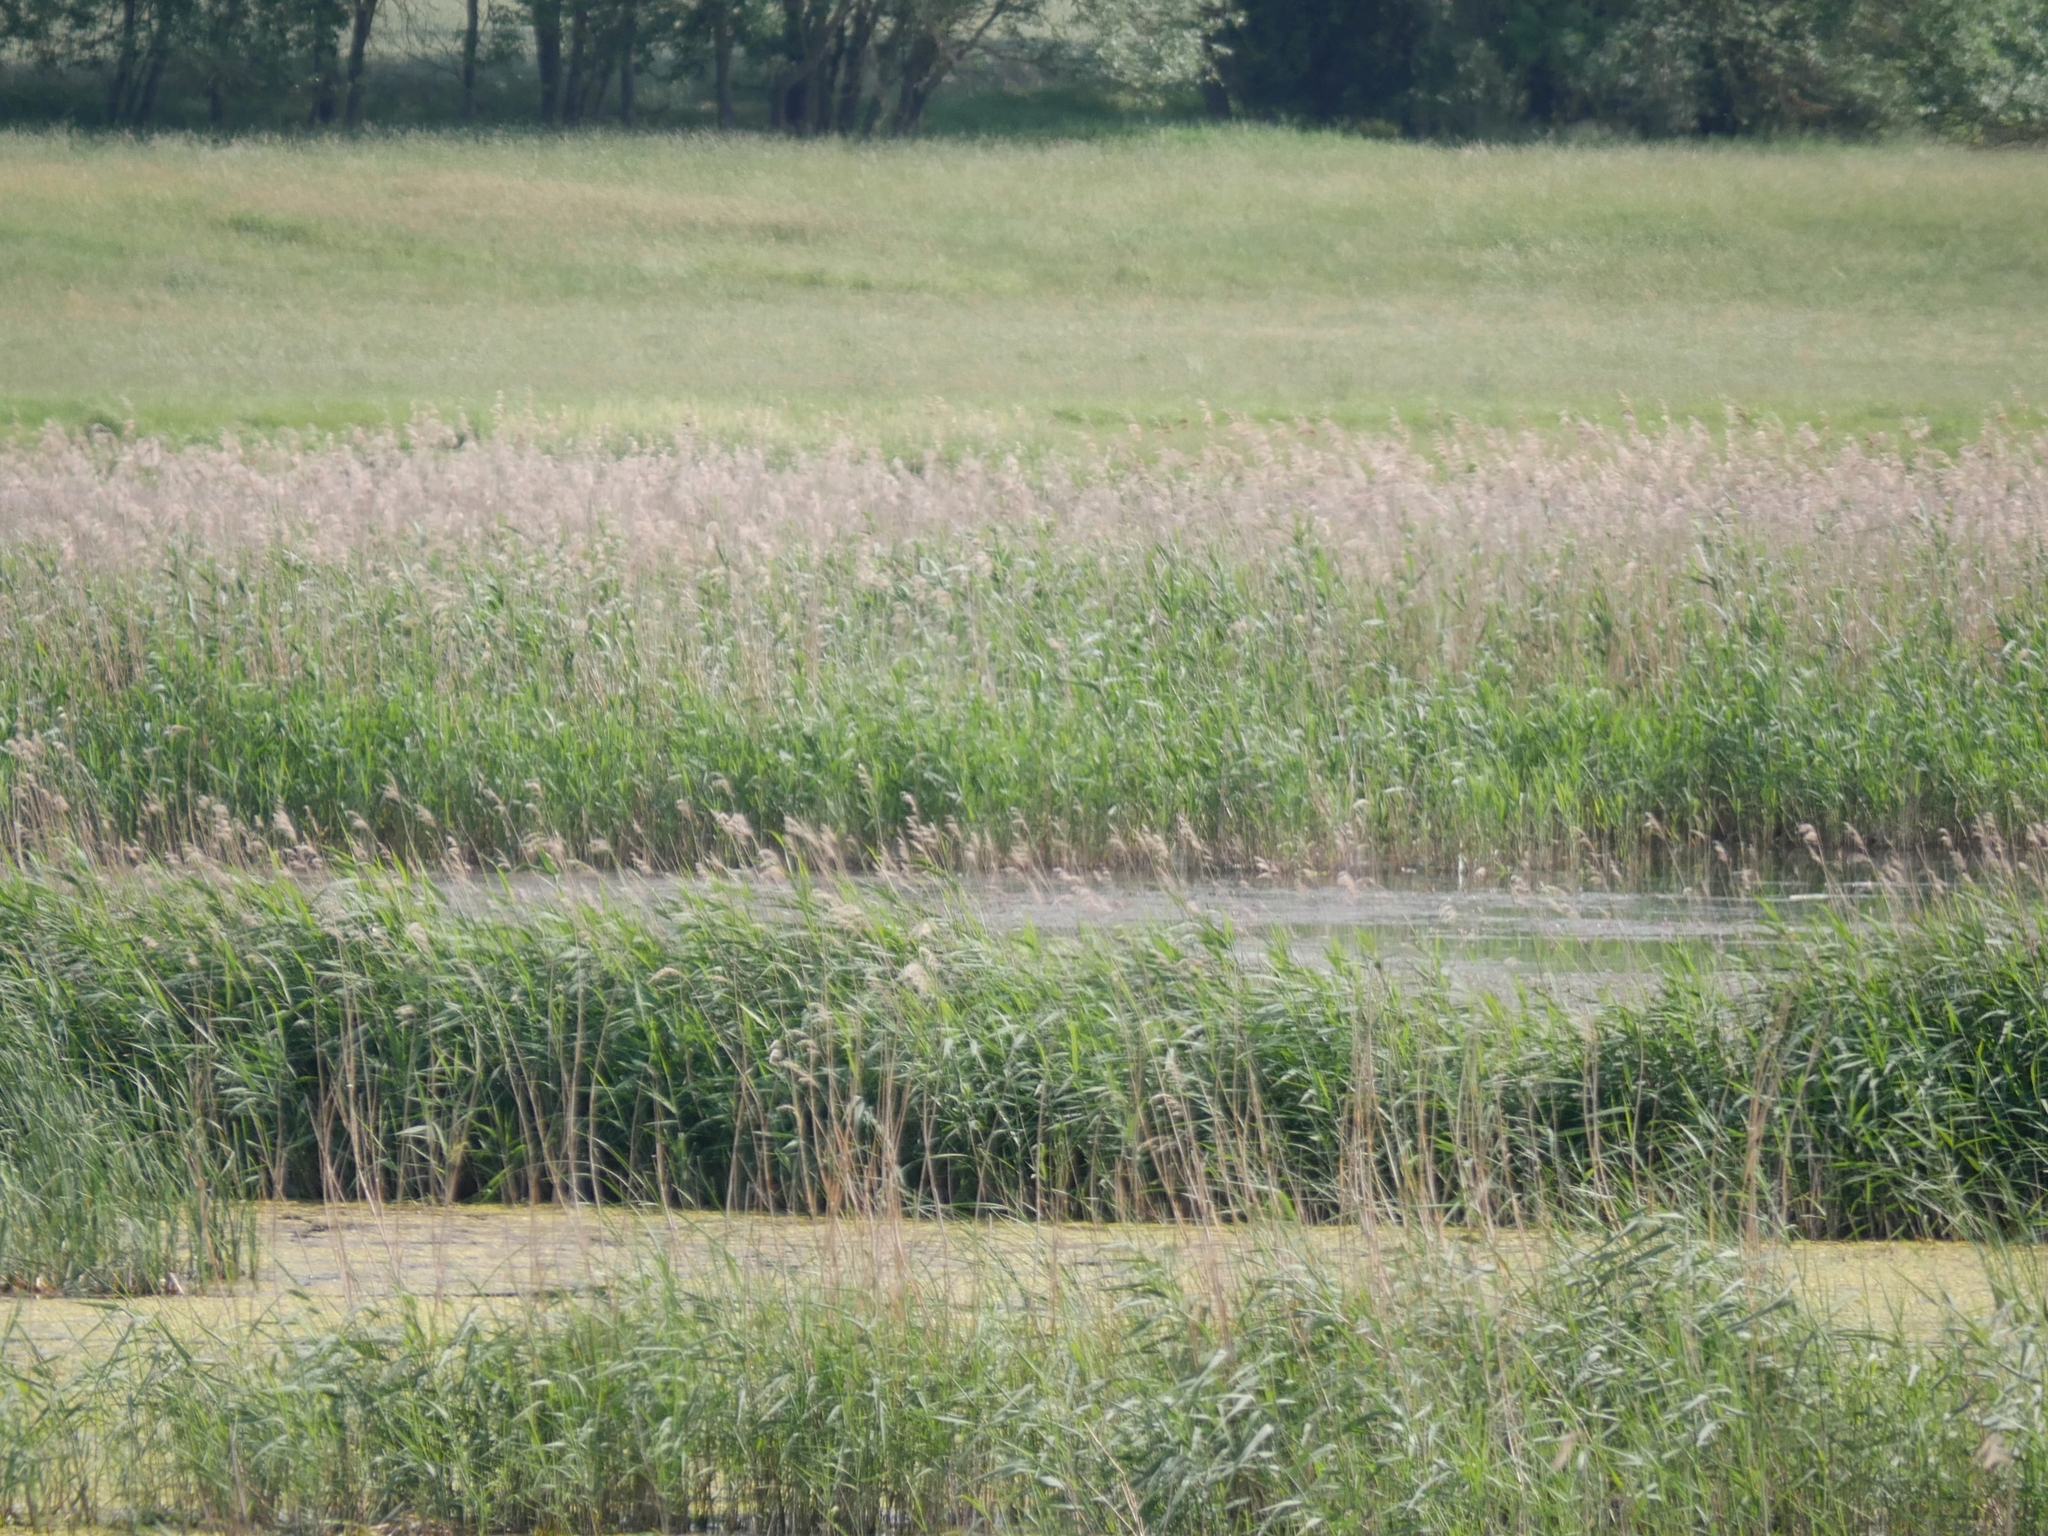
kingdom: Plantae
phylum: Tracheophyta
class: Liliopsida
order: Poales
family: Poaceae
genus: Phragmites
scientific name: Phragmites australis
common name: Common reed
